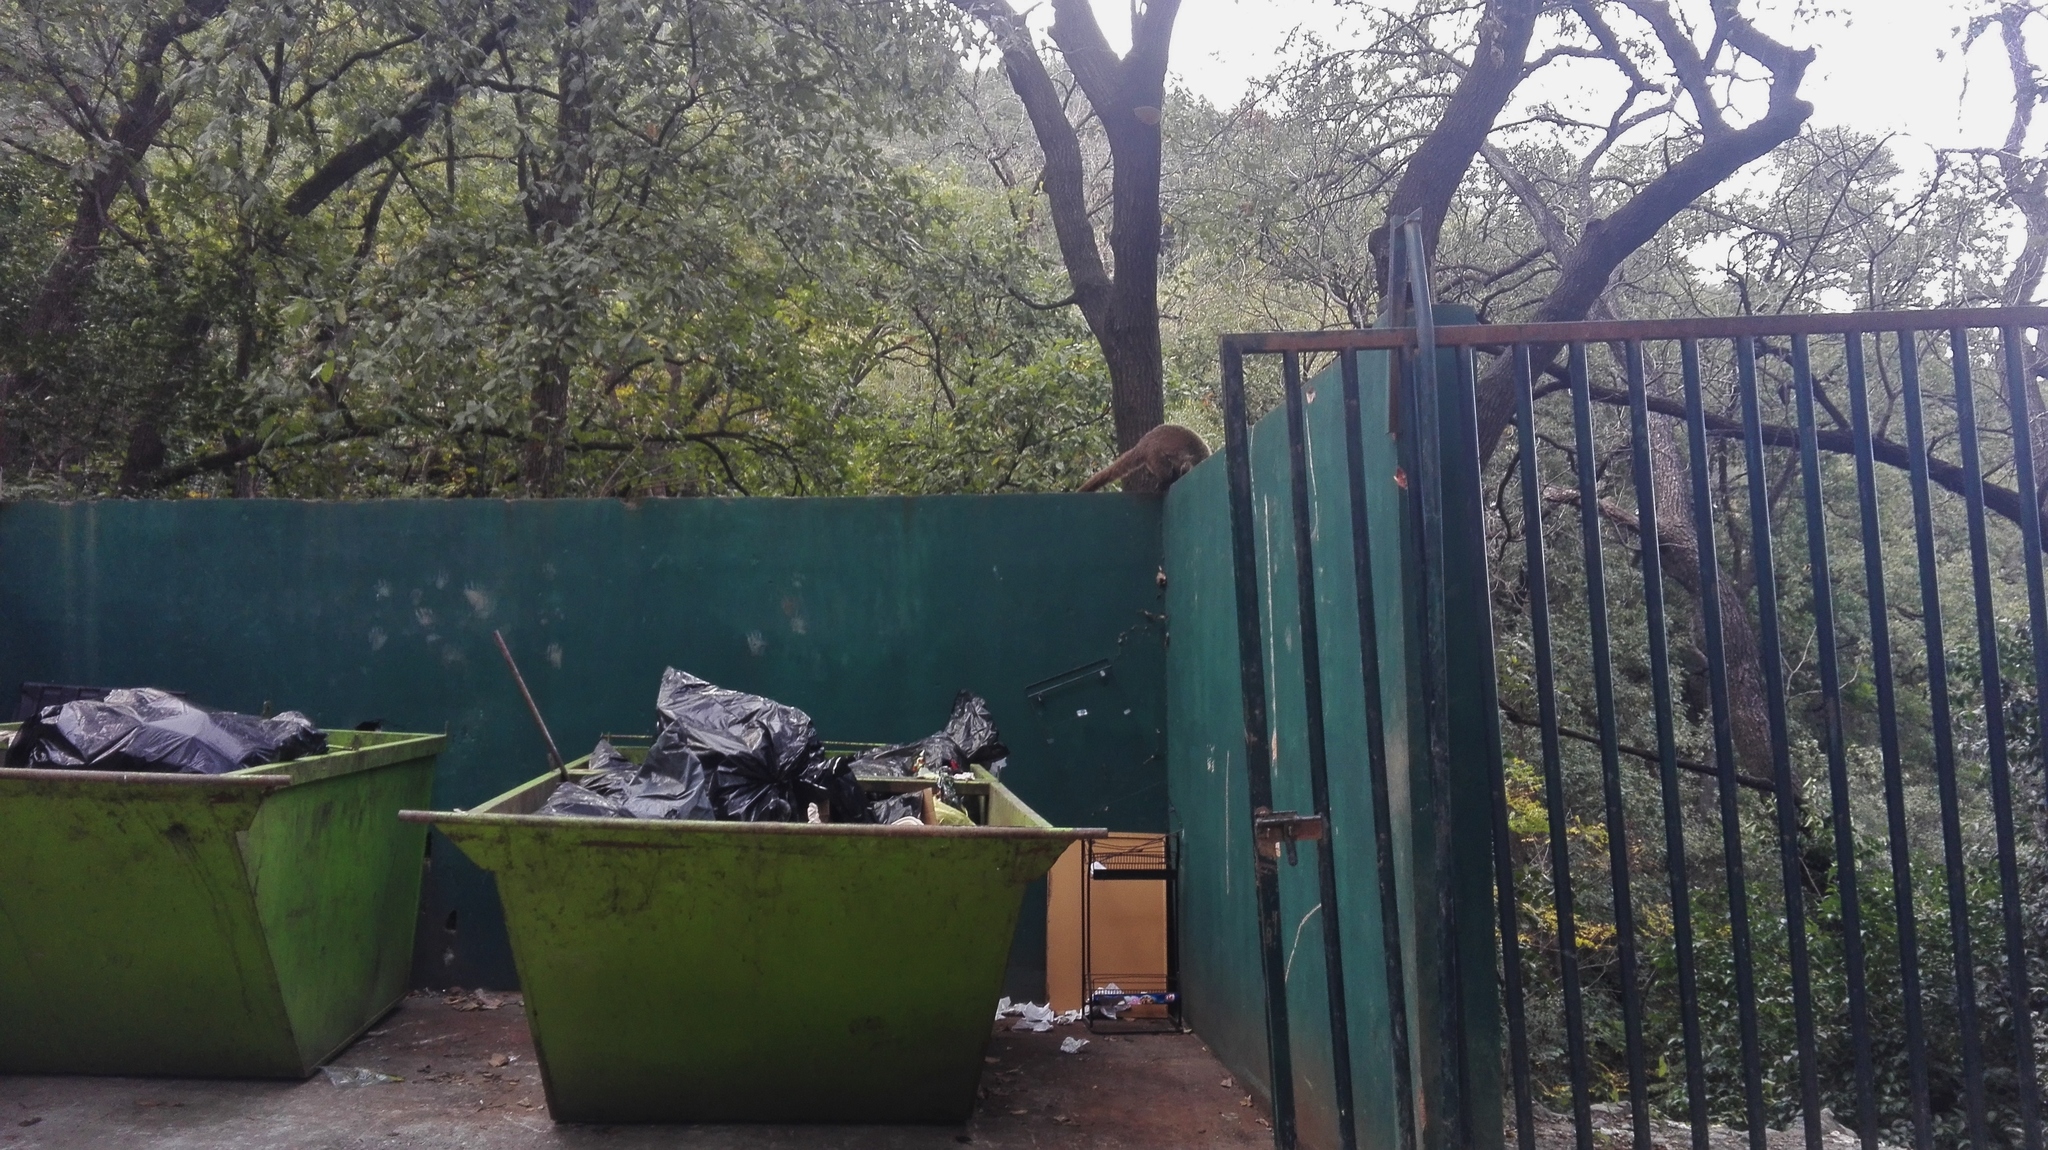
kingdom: Animalia
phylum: Chordata
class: Mammalia
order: Carnivora
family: Procyonidae
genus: Nasua
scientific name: Nasua narica
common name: White-nosed coati
